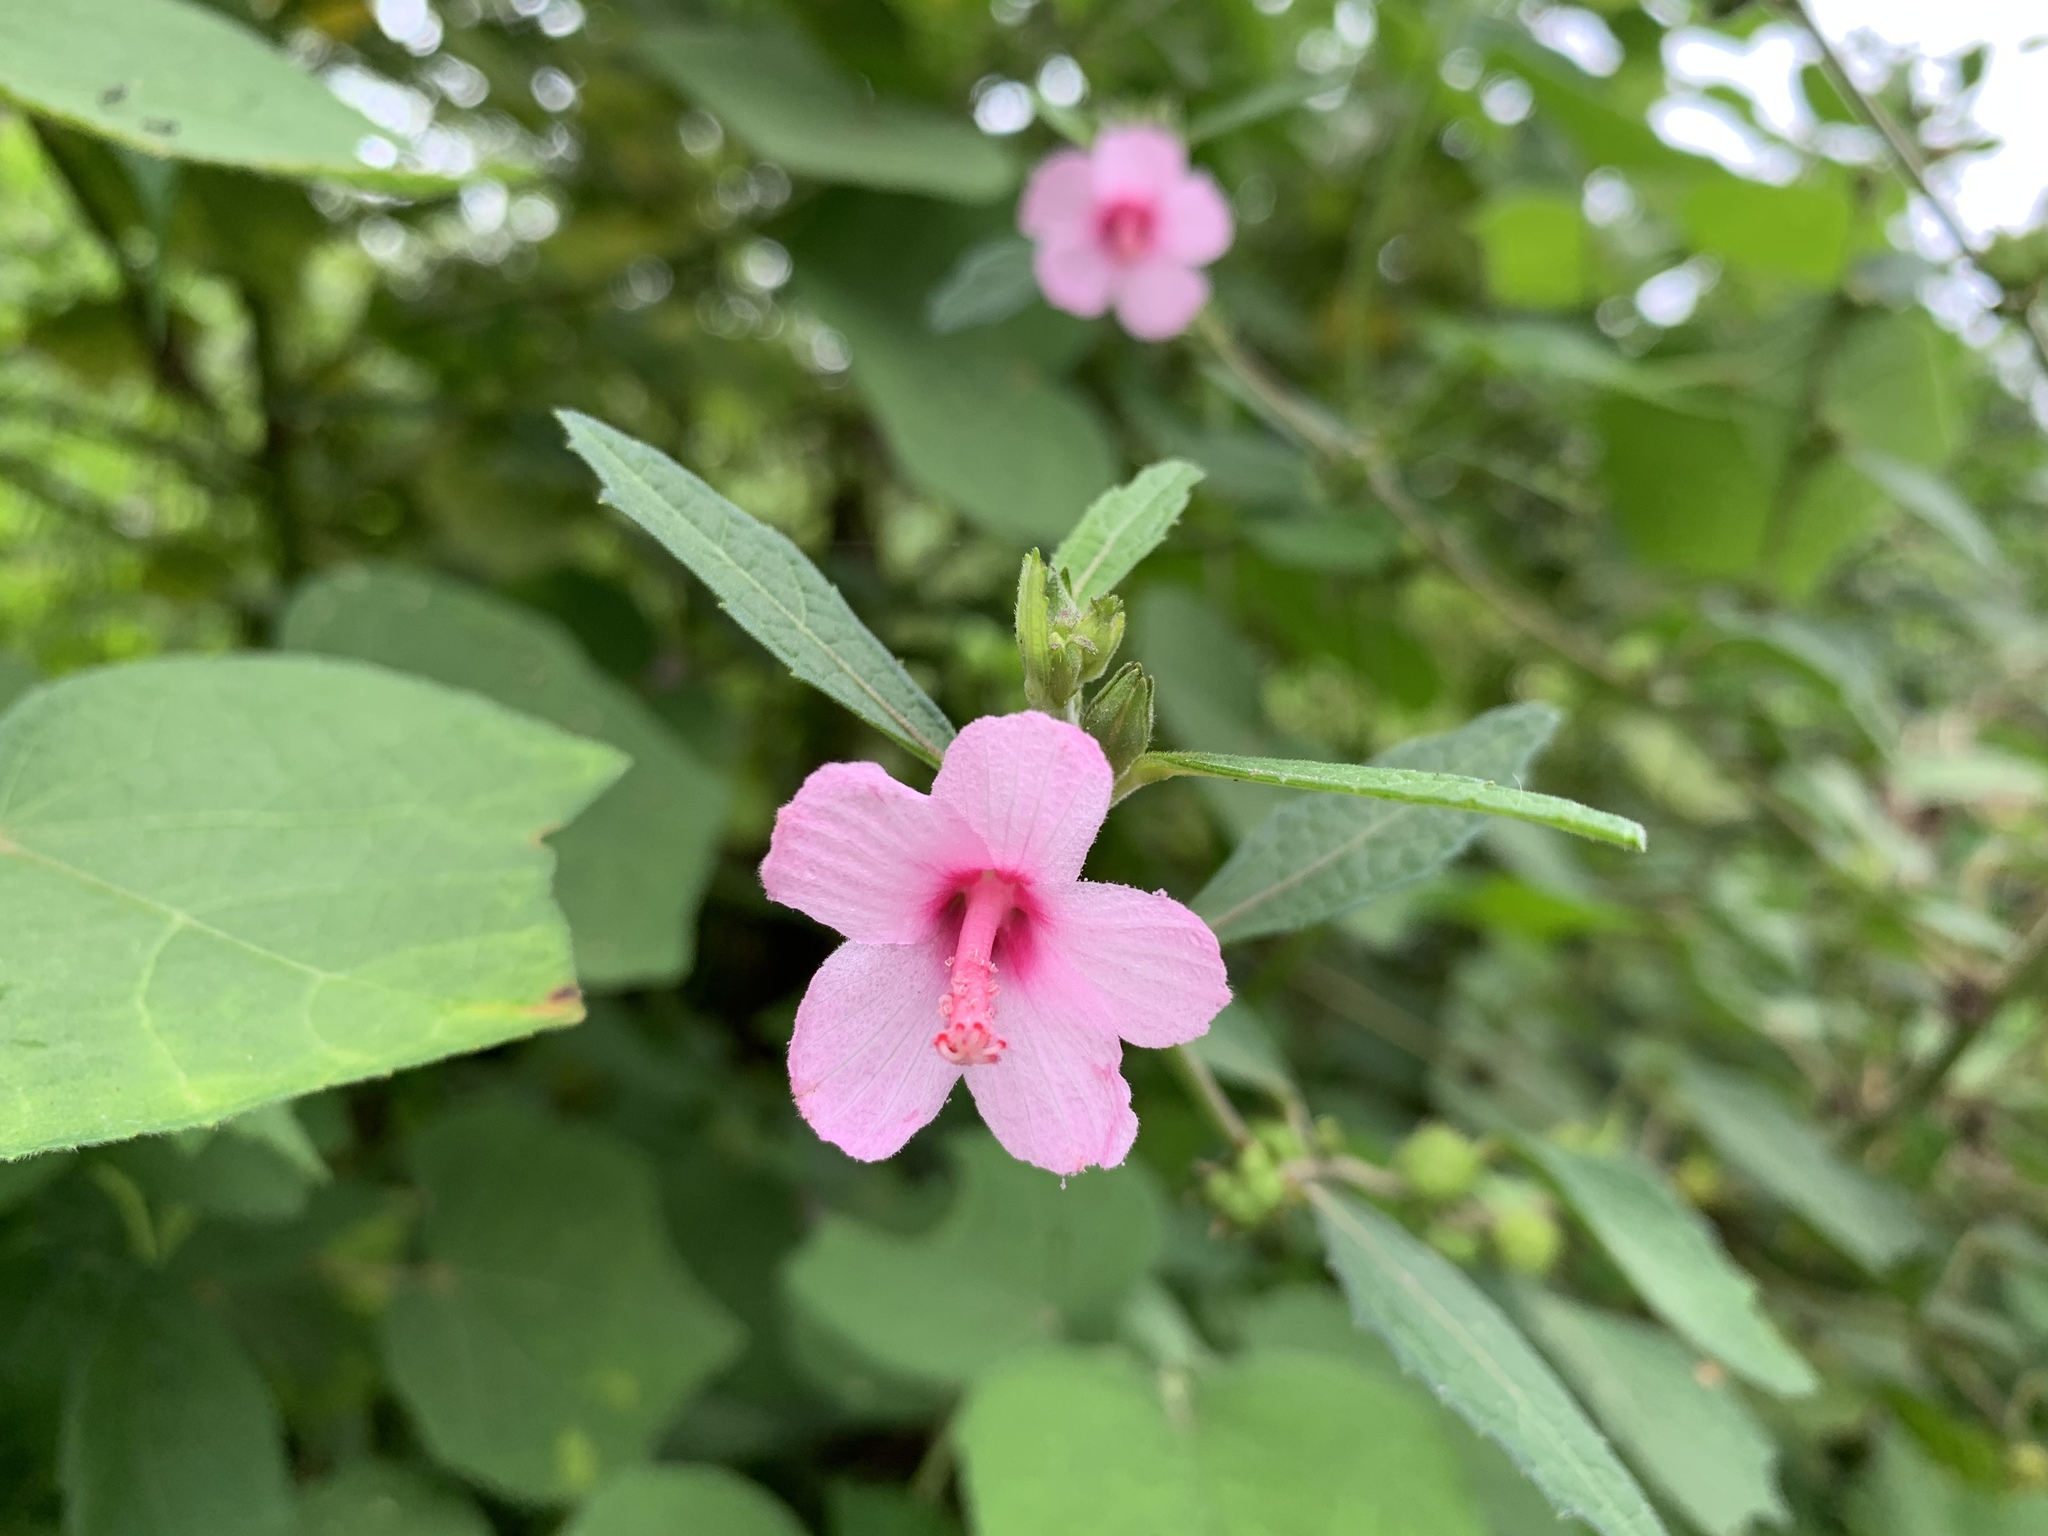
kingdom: Plantae
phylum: Tracheophyta
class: Magnoliopsida
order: Malvales
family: Malvaceae
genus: Urena
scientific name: Urena lobata
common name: Caesarweed
